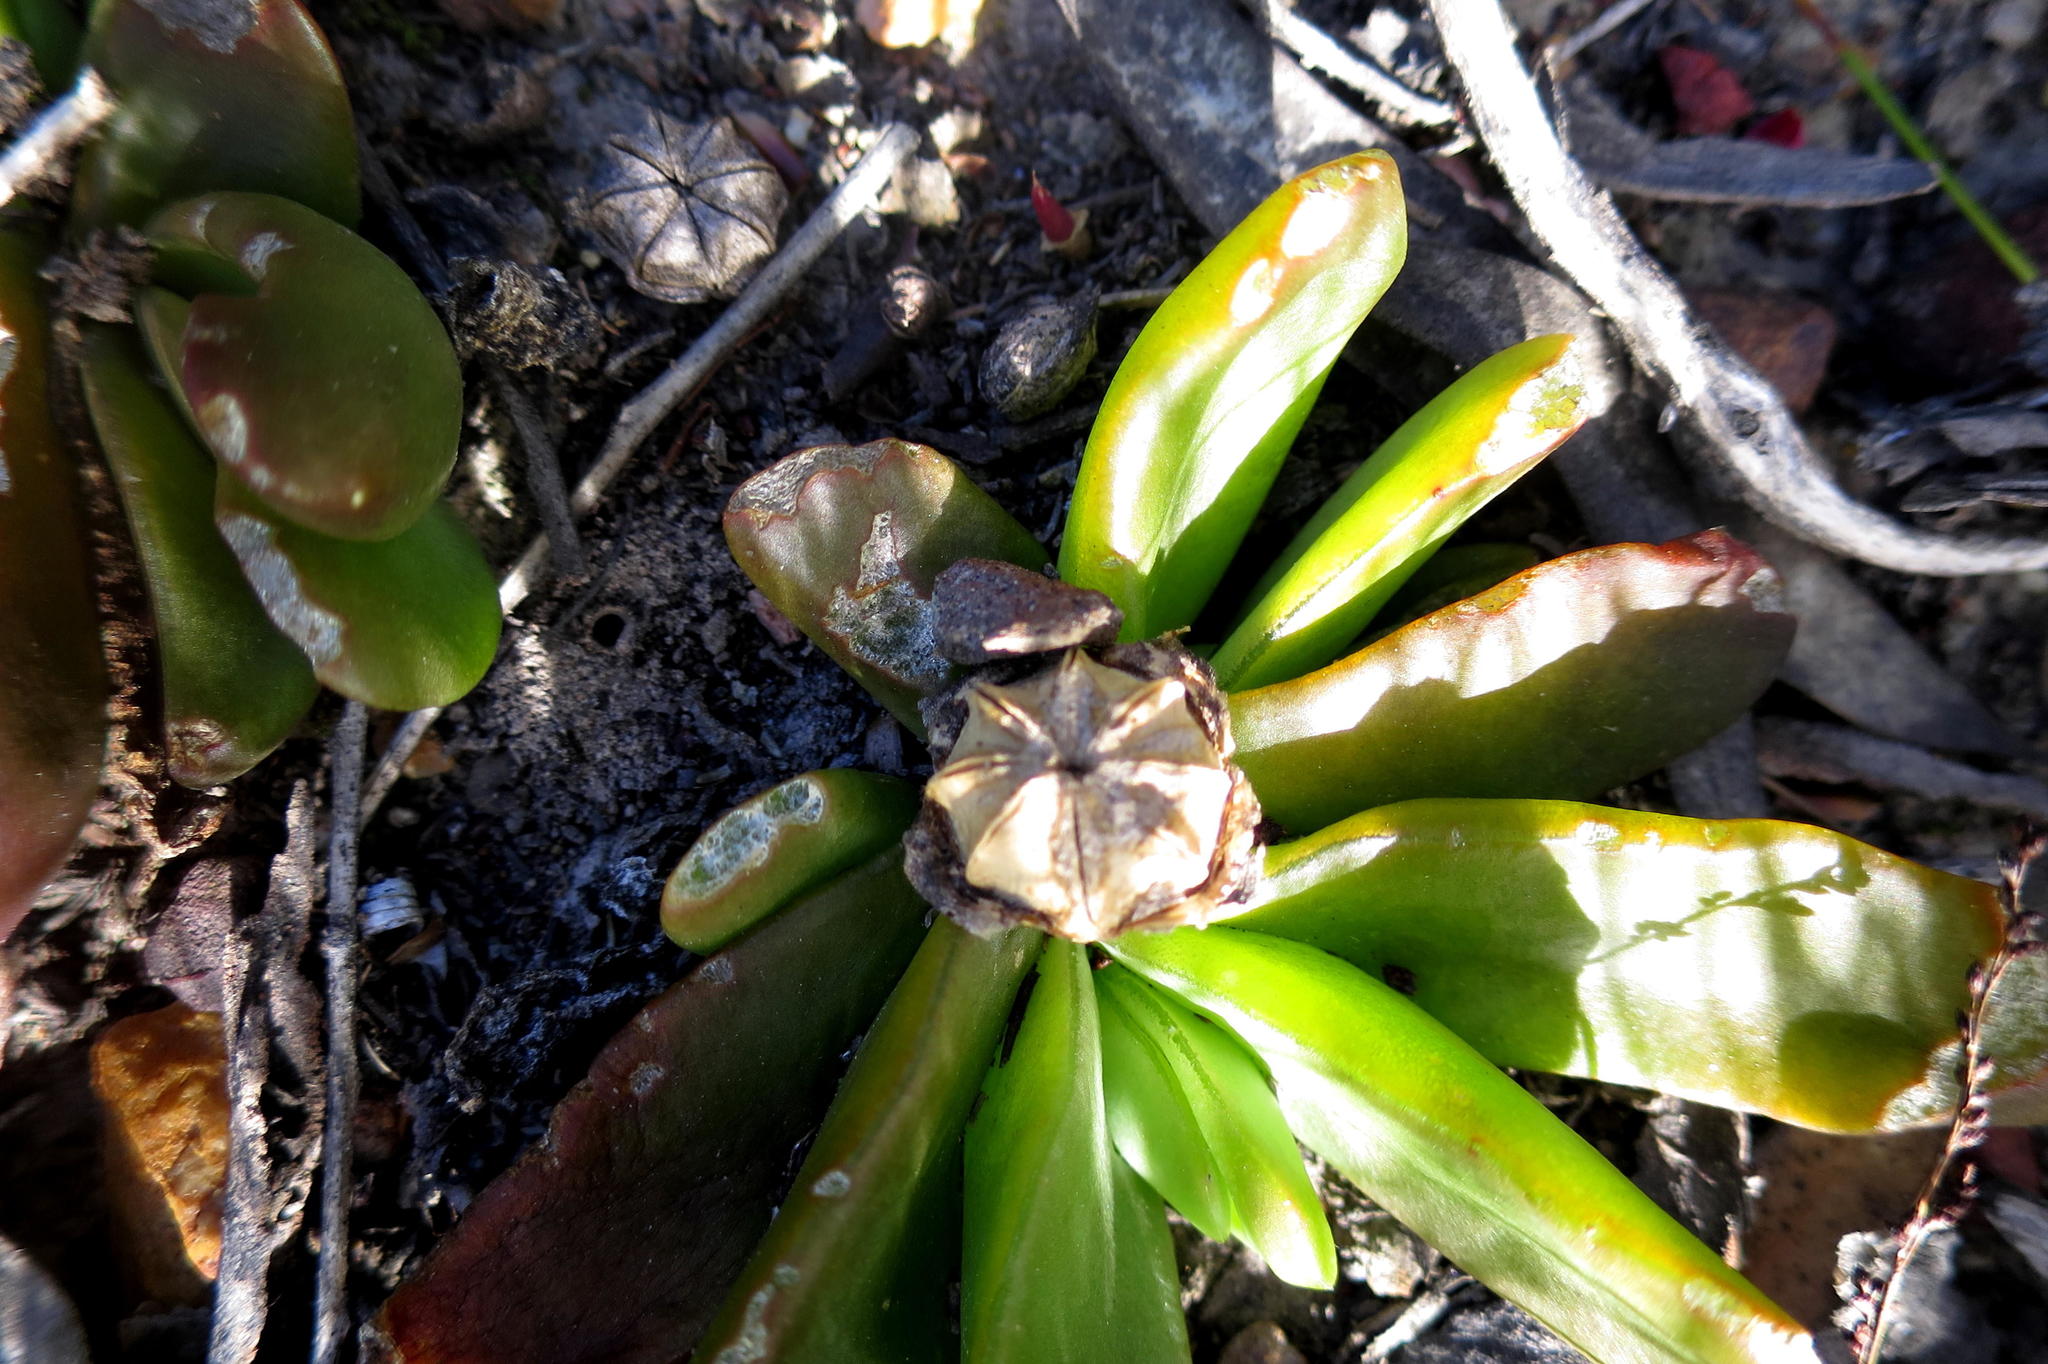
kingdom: Plantae
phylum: Tracheophyta
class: Magnoliopsida
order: Caryophyllales
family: Aizoaceae
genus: Glottiphyllum
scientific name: Glottiphyllum depressum
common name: Fig-marigold
